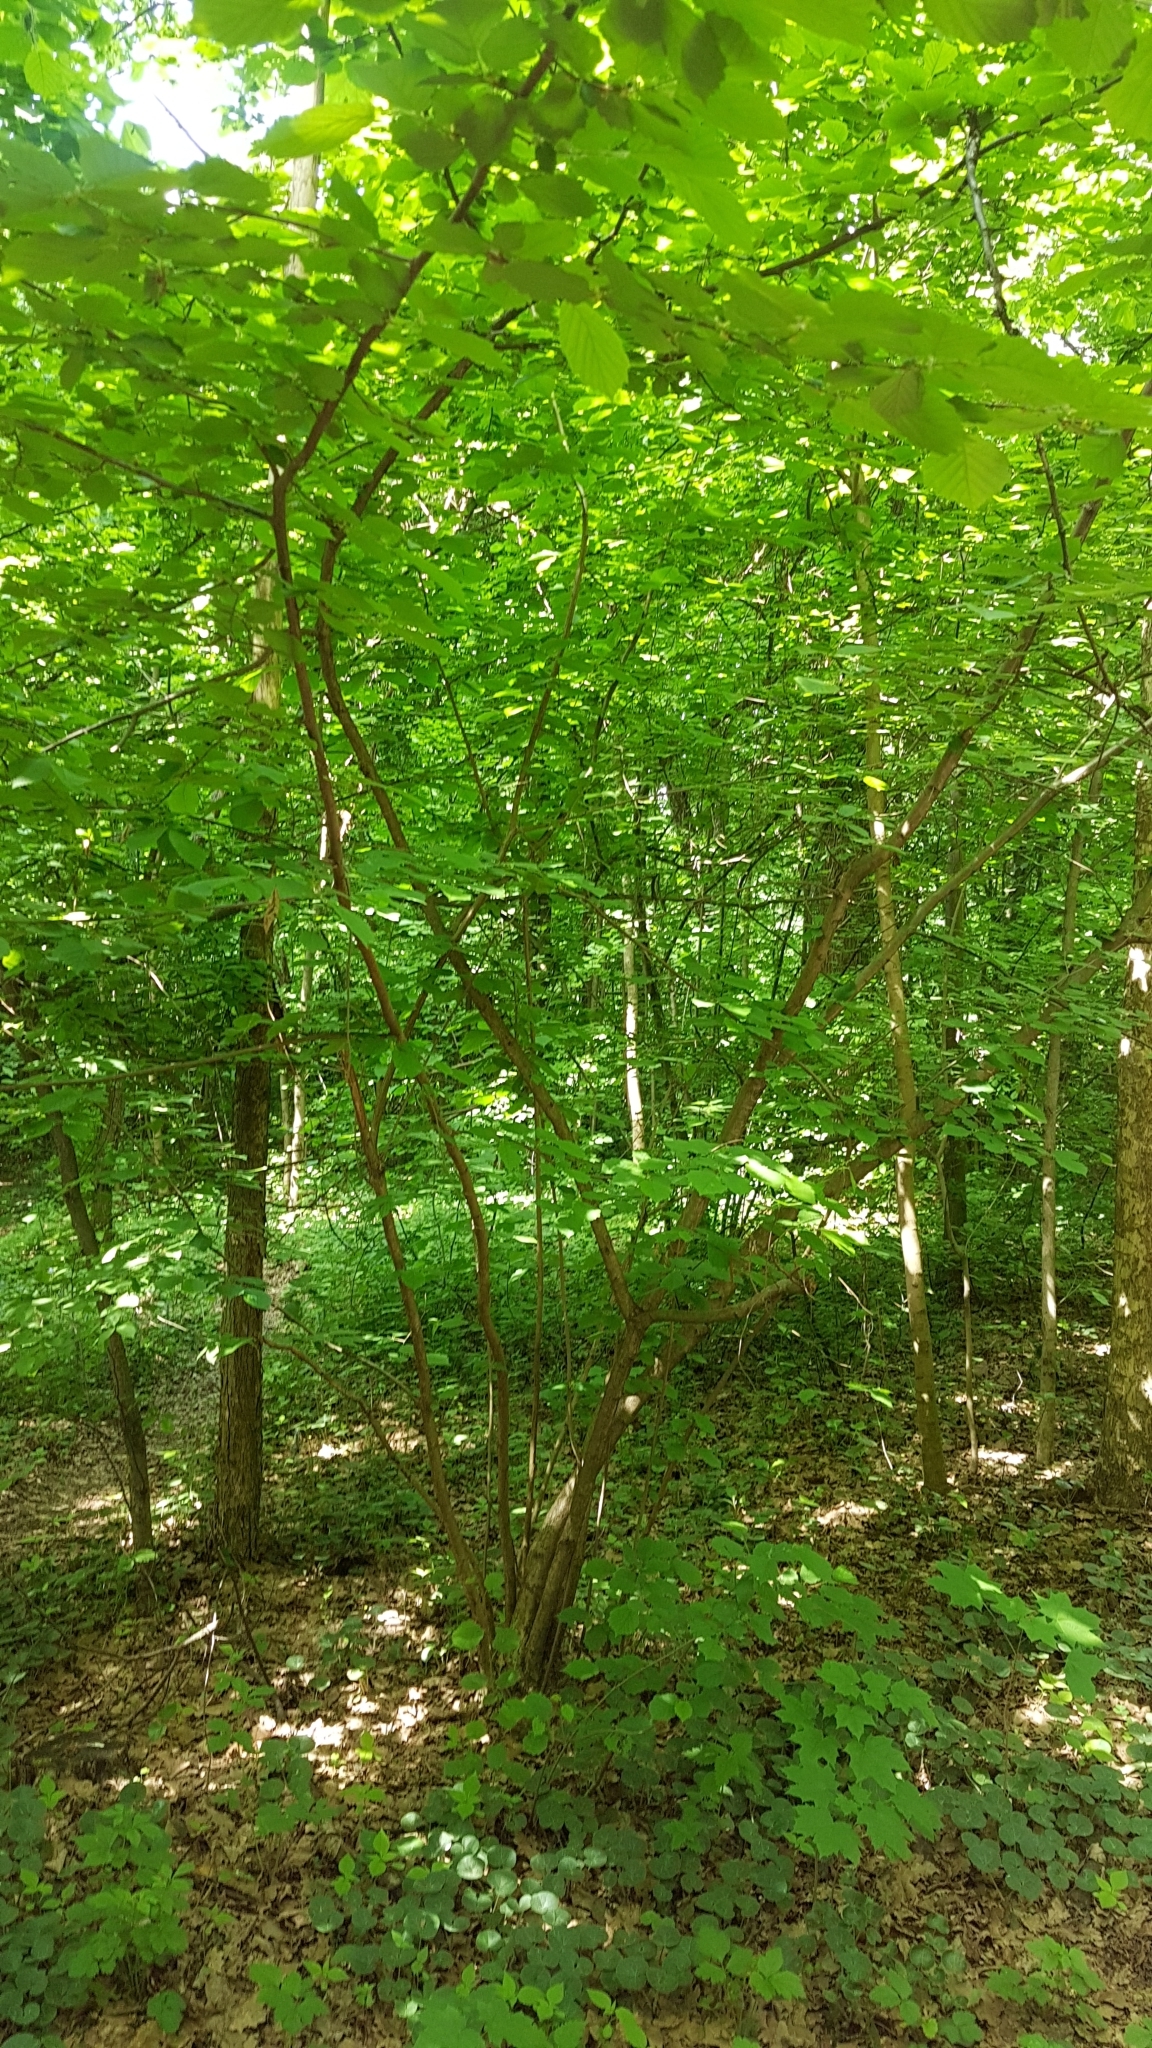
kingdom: Plantae
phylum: Tracheophyta
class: Magnoliopsida
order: Fagales
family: Betulaceae
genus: Corylus
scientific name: Corylus avellana
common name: European hazel
